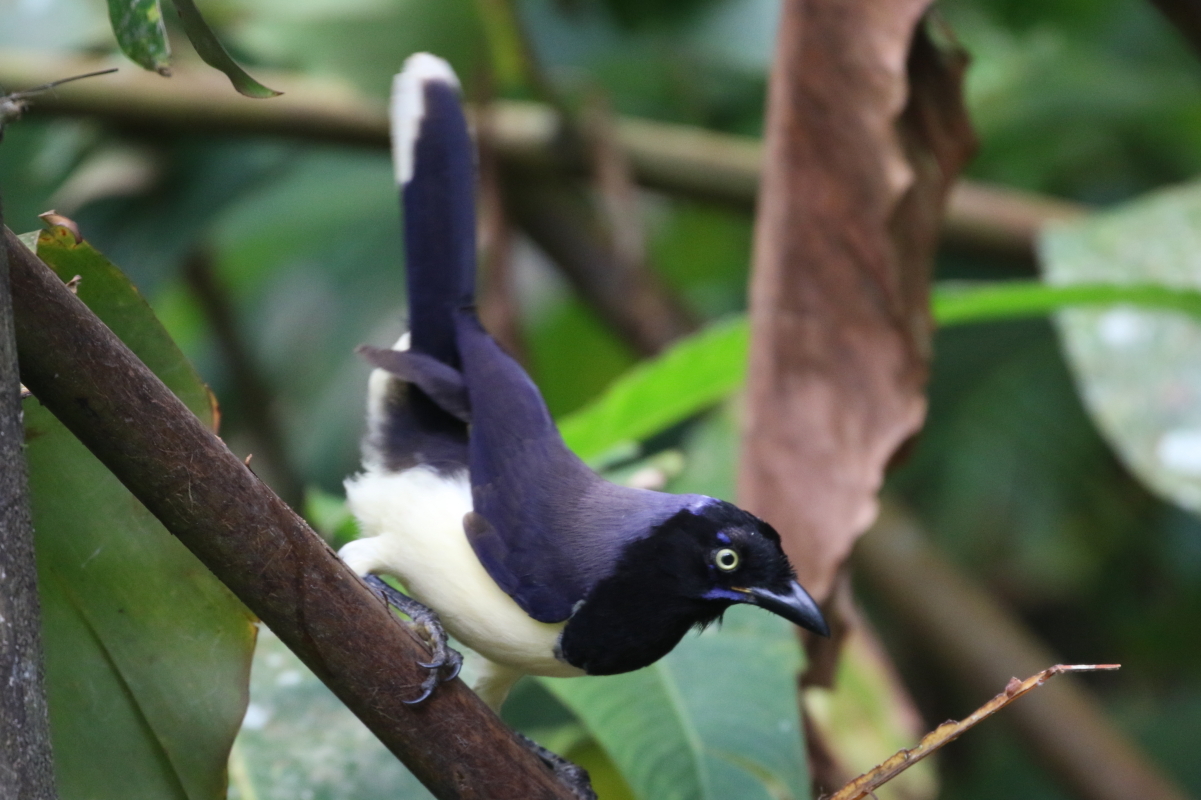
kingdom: Animalia
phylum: Chordata
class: Aves
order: Passeriformes
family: Corvidae
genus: Cyanocorax
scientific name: Cyanocorax affinis
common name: Black-chested jay
